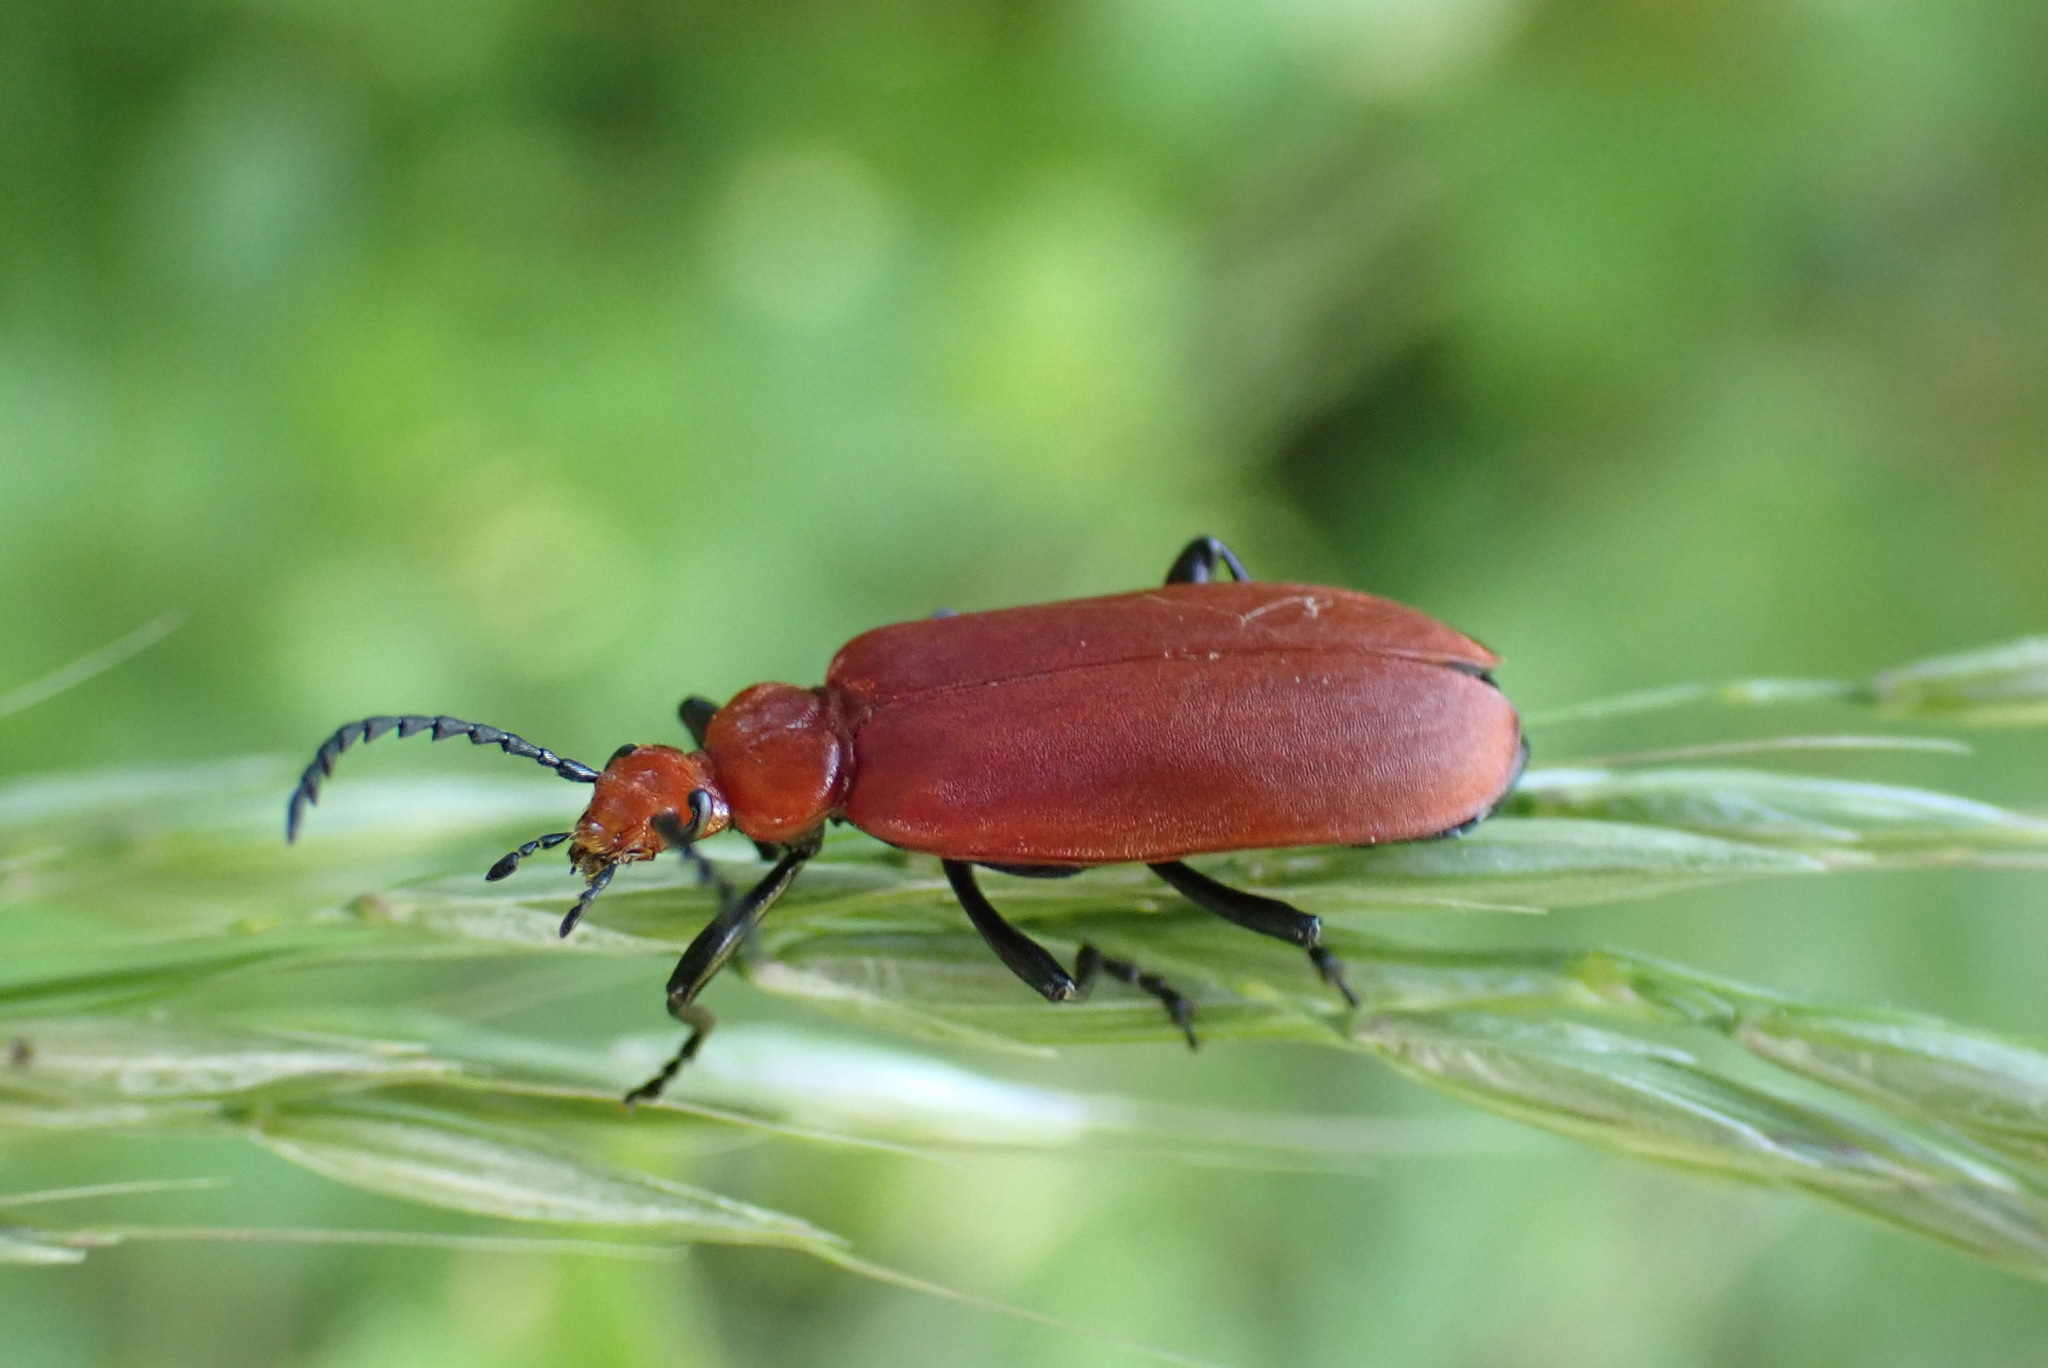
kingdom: Animalia
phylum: Arthropoda
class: Insecta
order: Coleoptera
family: Pyrochroidae
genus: Pyrochroa
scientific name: Pyrochroa serraticornis
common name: Red-headed cardinal beetle
